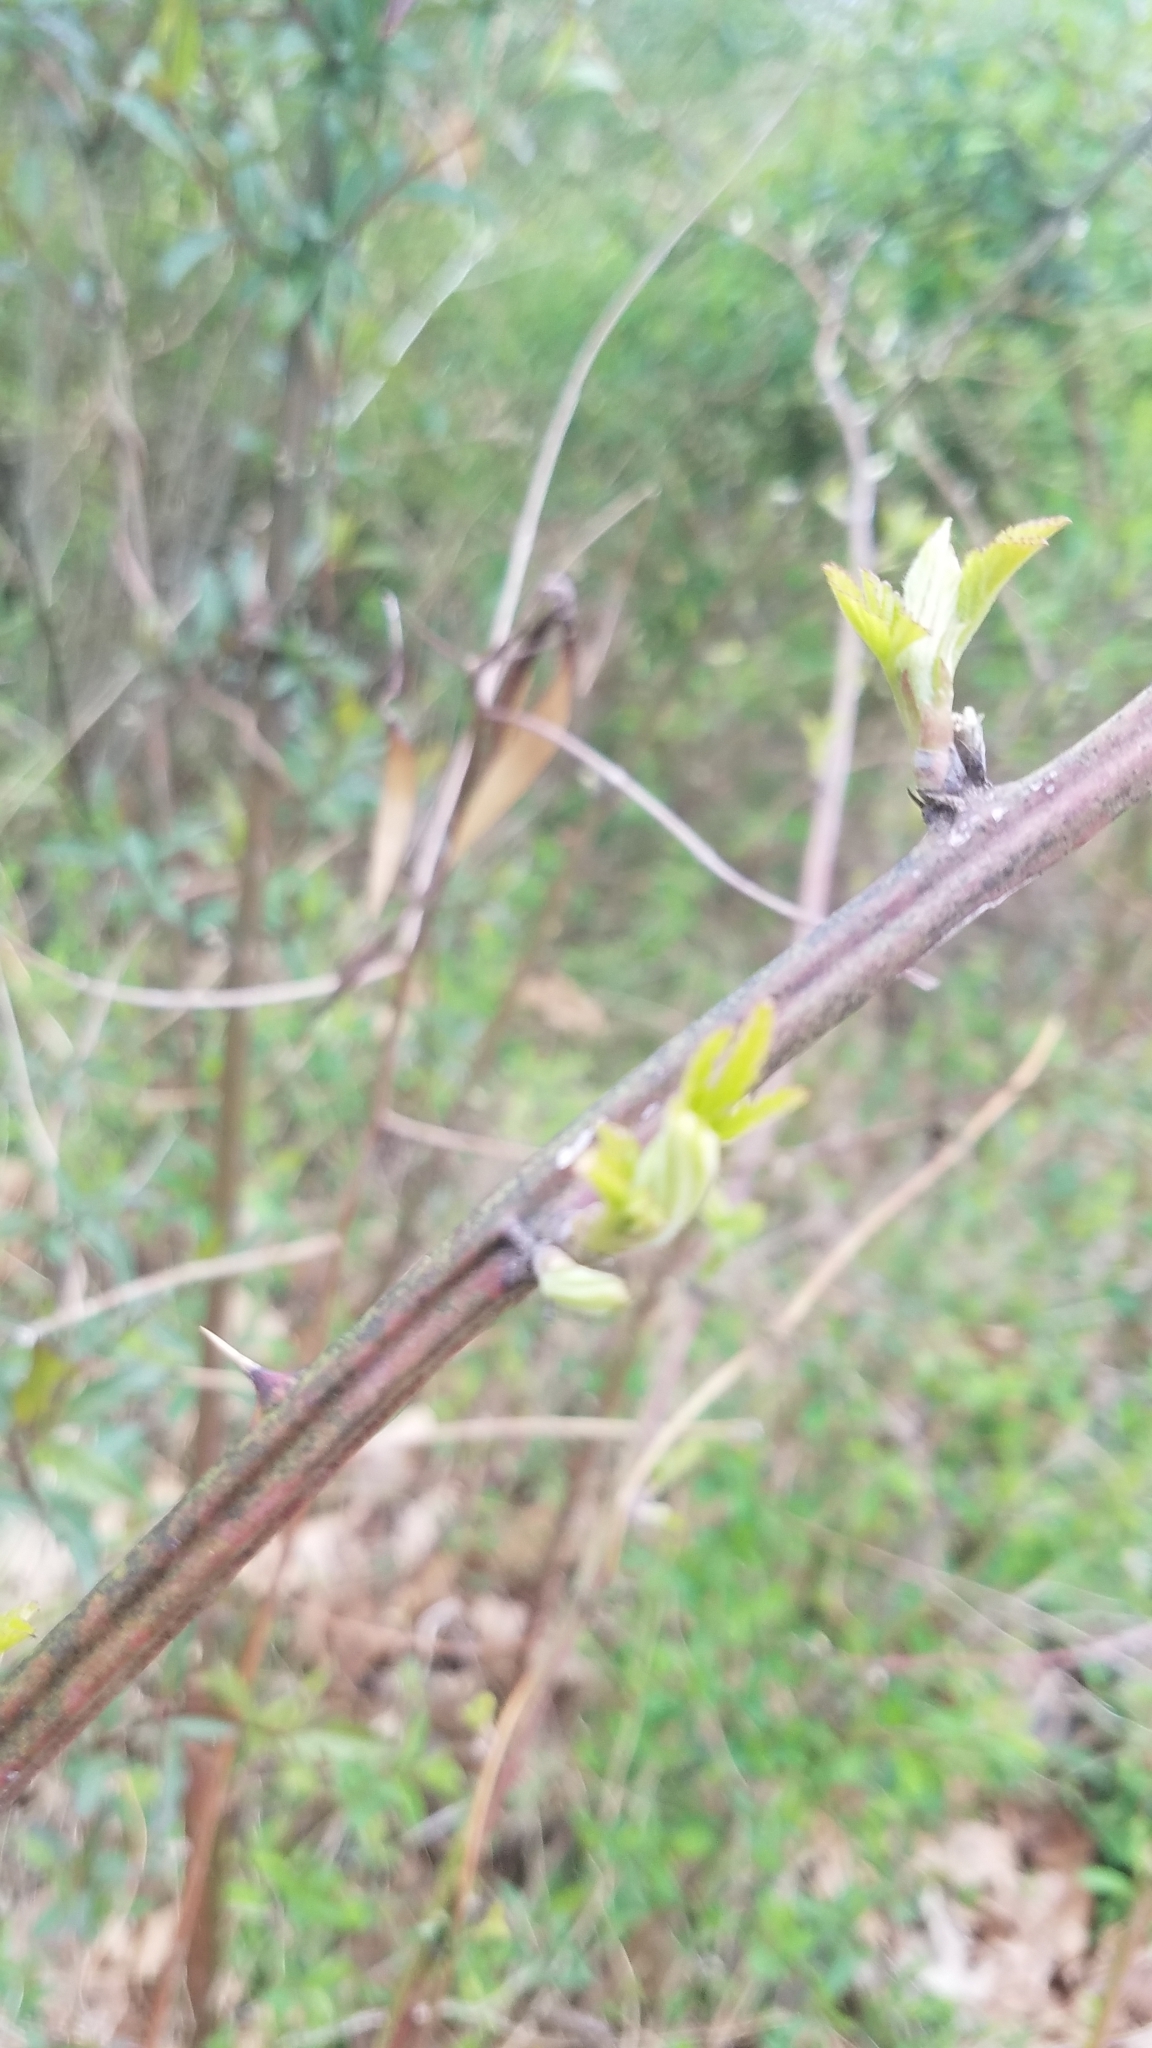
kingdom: Animalia
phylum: Arthropoda
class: Insecta
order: Hymenoptera
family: Cynipidae
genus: Diastrophus
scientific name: Diastrophus
